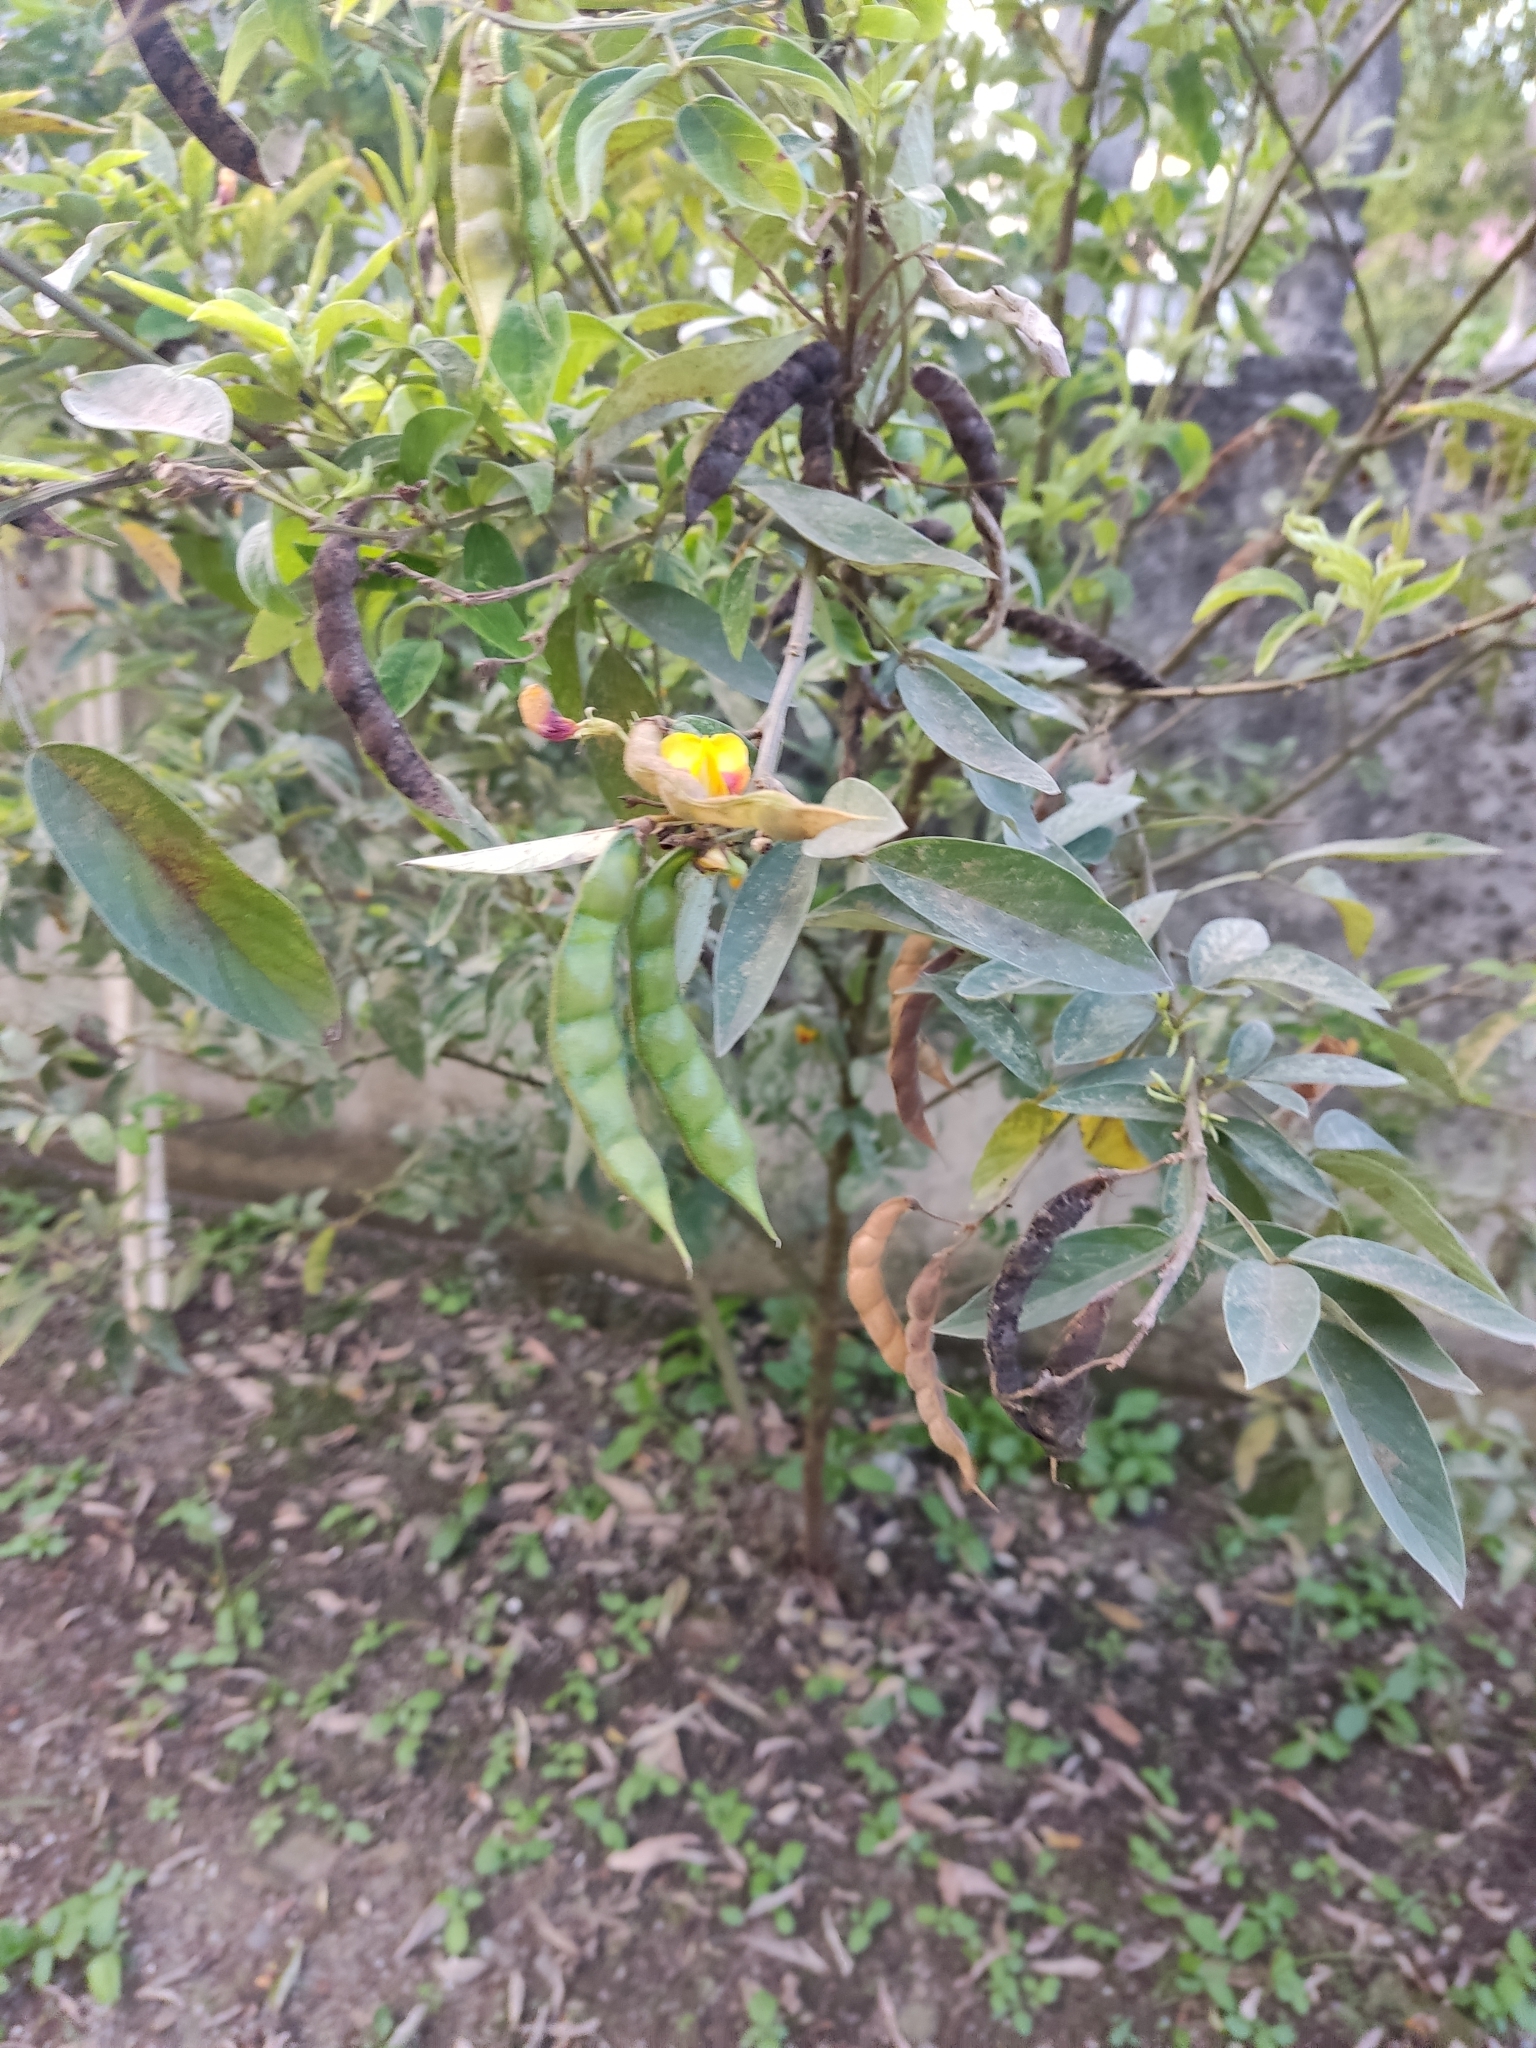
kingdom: Plantae
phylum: Tracheophyta
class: Magnoliopsida
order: Fabales
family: Fabaceae
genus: Cajanus
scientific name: Cajanus cajan
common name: Pigeonpea
